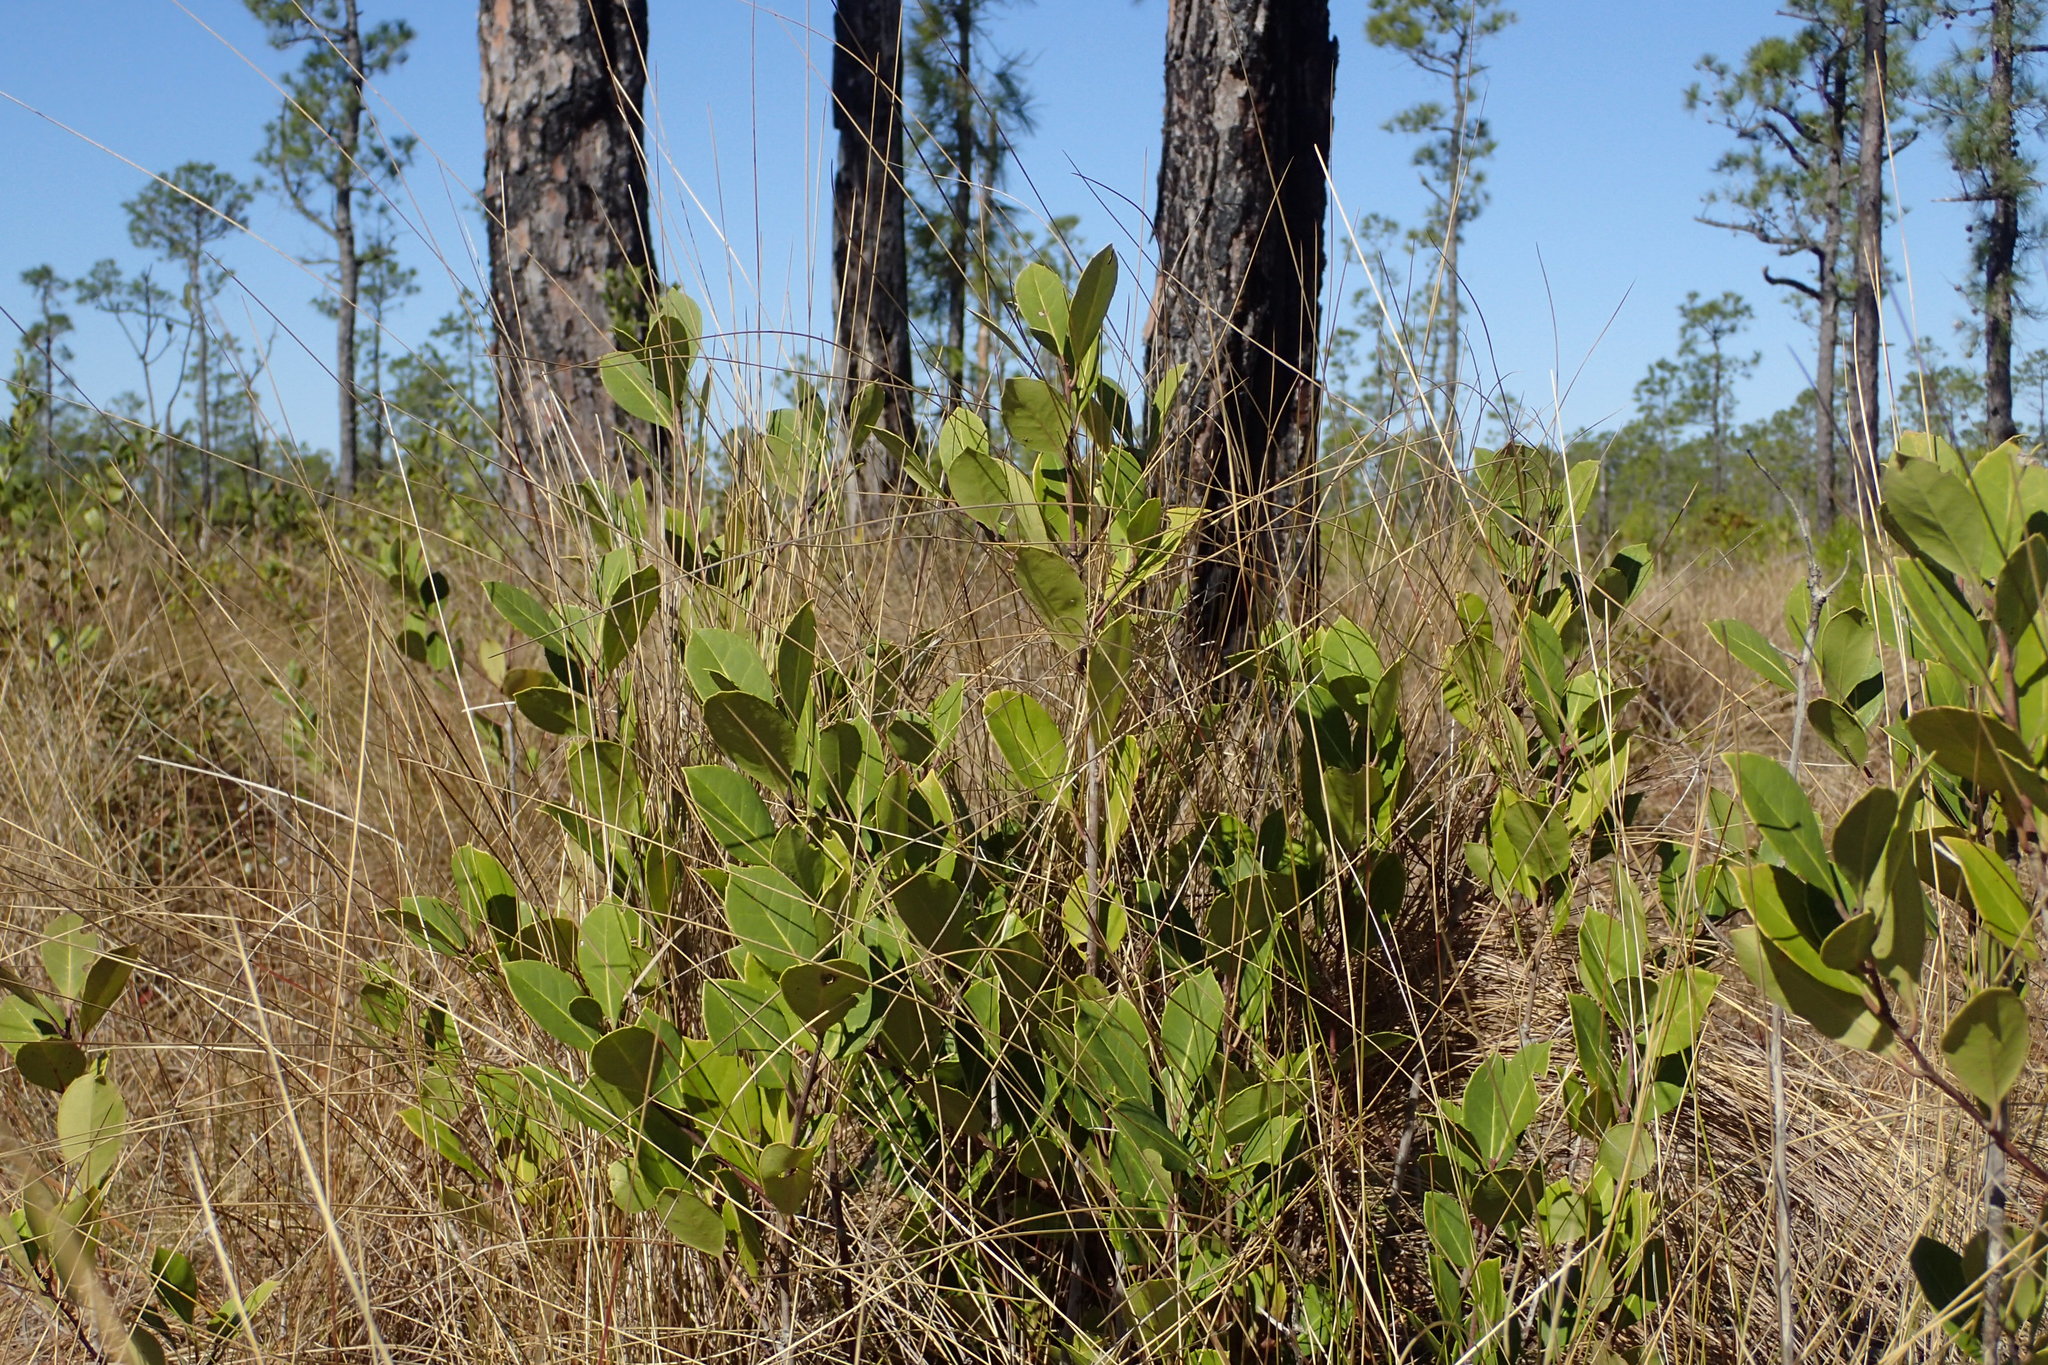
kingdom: Plantae
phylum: Tracheophyta
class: Magnoliopsida
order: Aquifoliales
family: Aquifoliaceae
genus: Ilex
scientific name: Ilex coriacea
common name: Sweet gallberry
